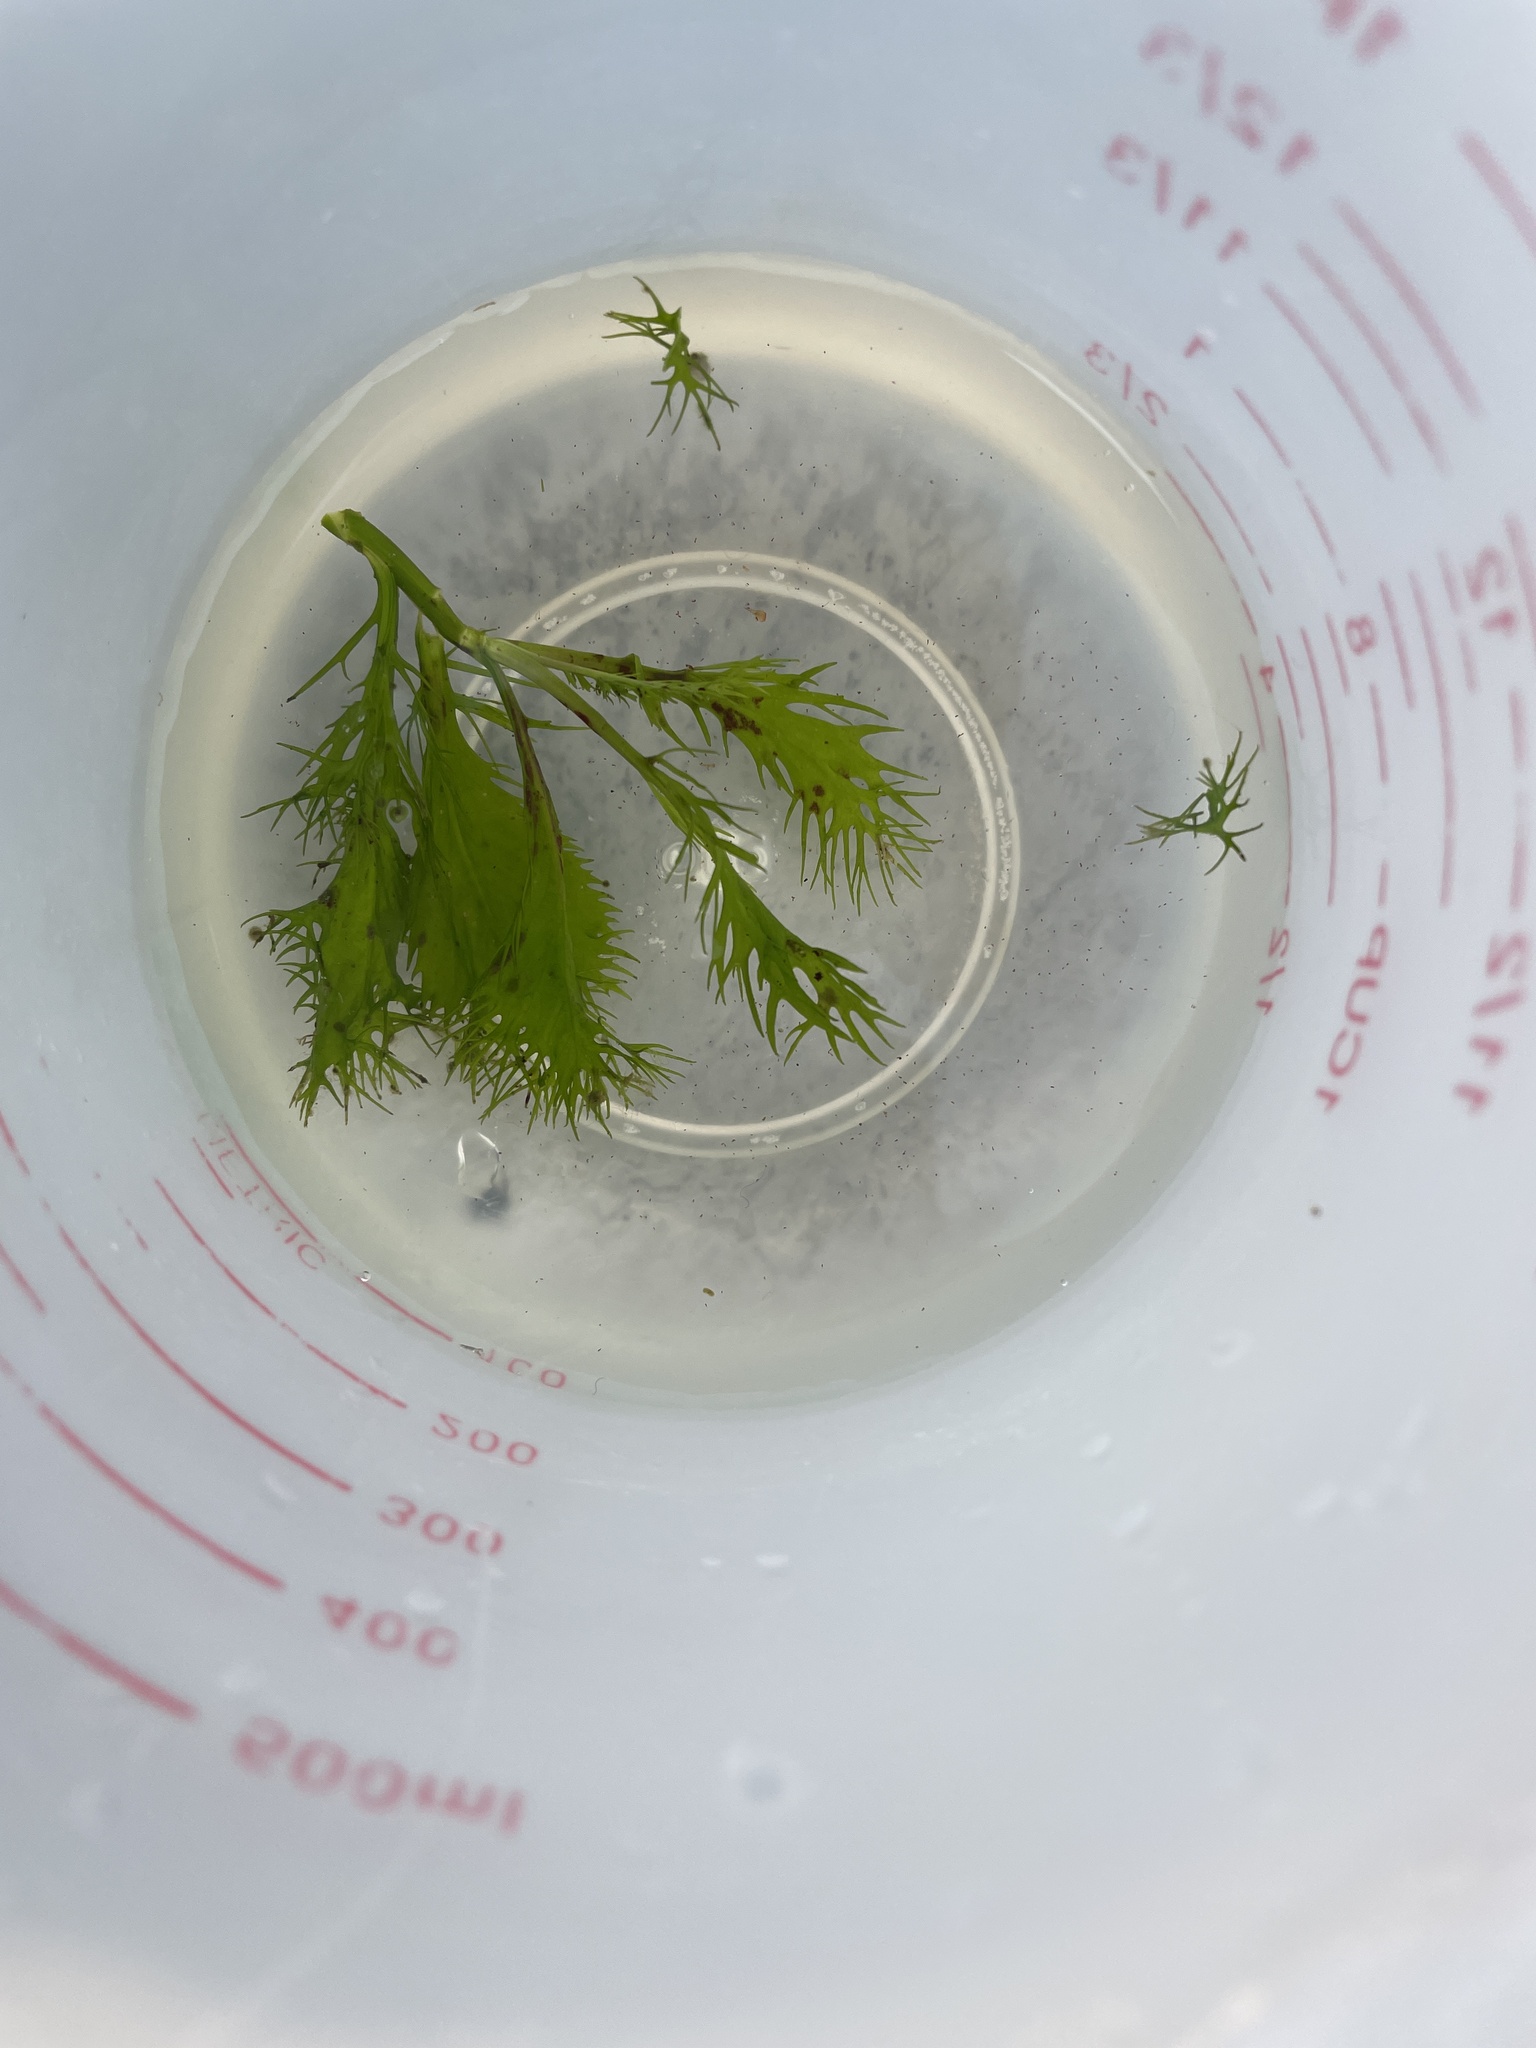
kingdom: Plantae
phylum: Tracheophyta
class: Magnoliopsida
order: Brassicales
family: Brassicaceae
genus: Rorippa
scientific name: Rorippa aquatica
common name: Lake watercress
